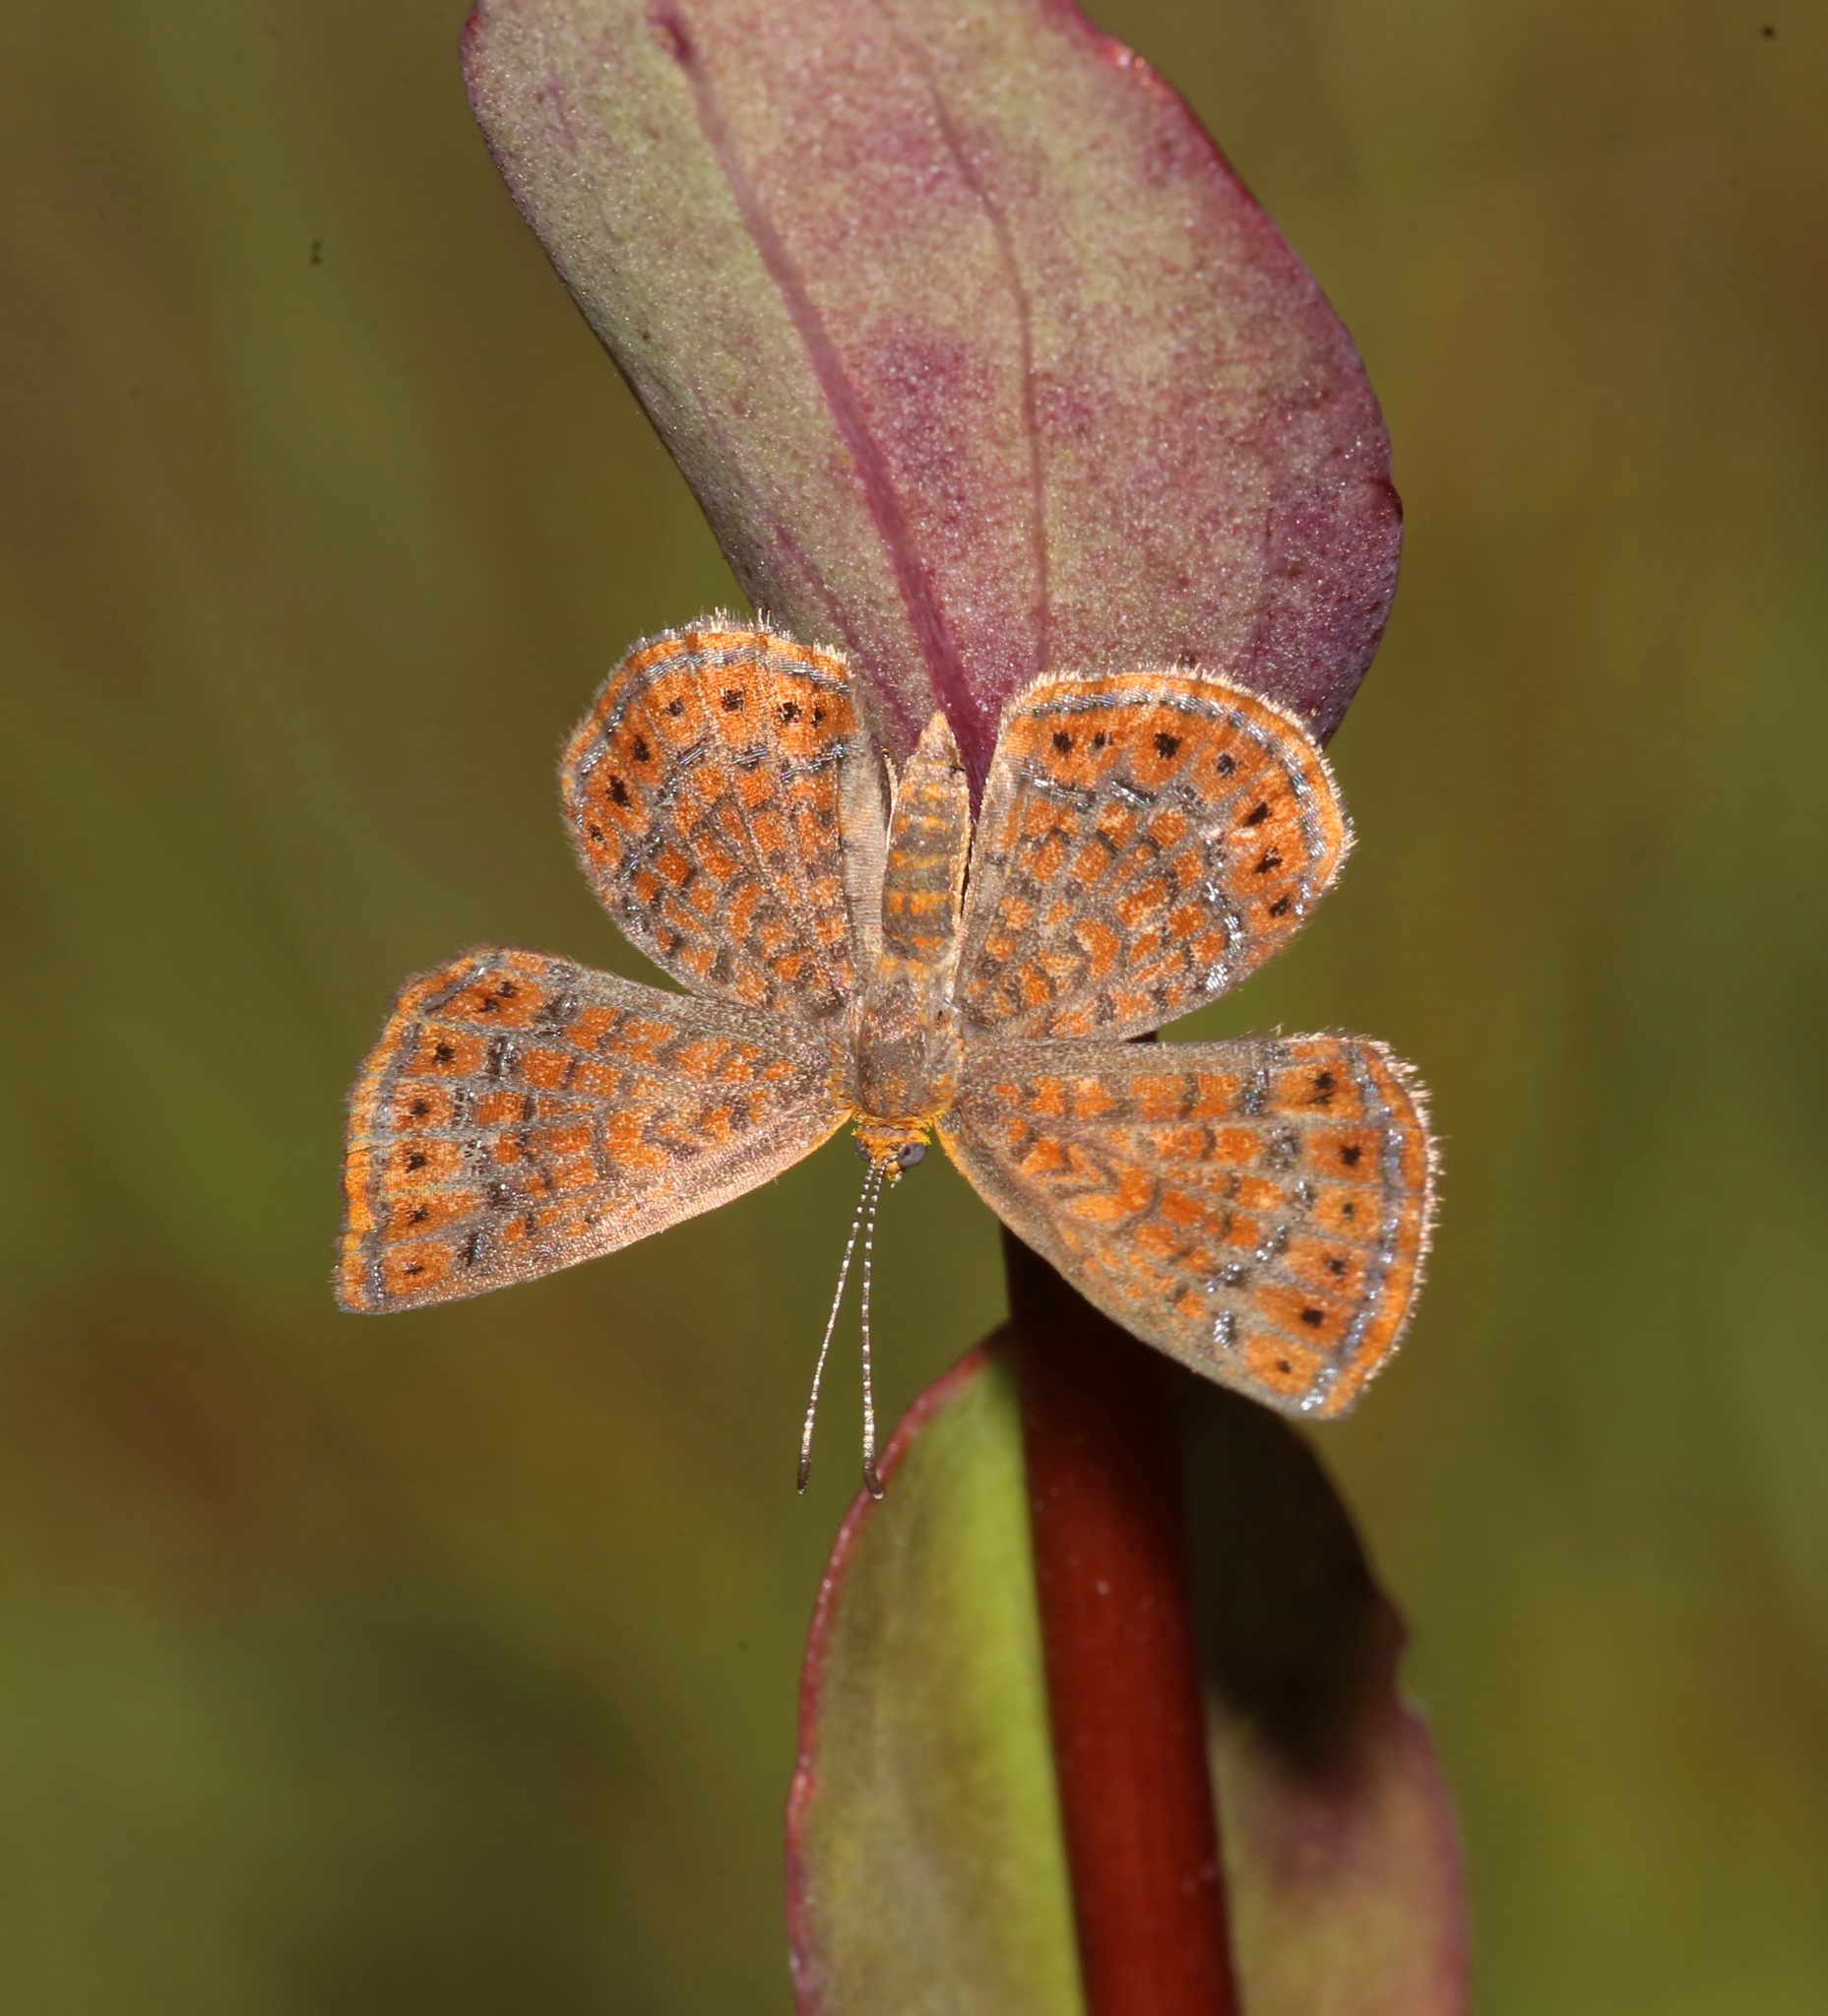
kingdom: Animalia
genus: Calephelis
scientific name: Calephelis virginiensis
